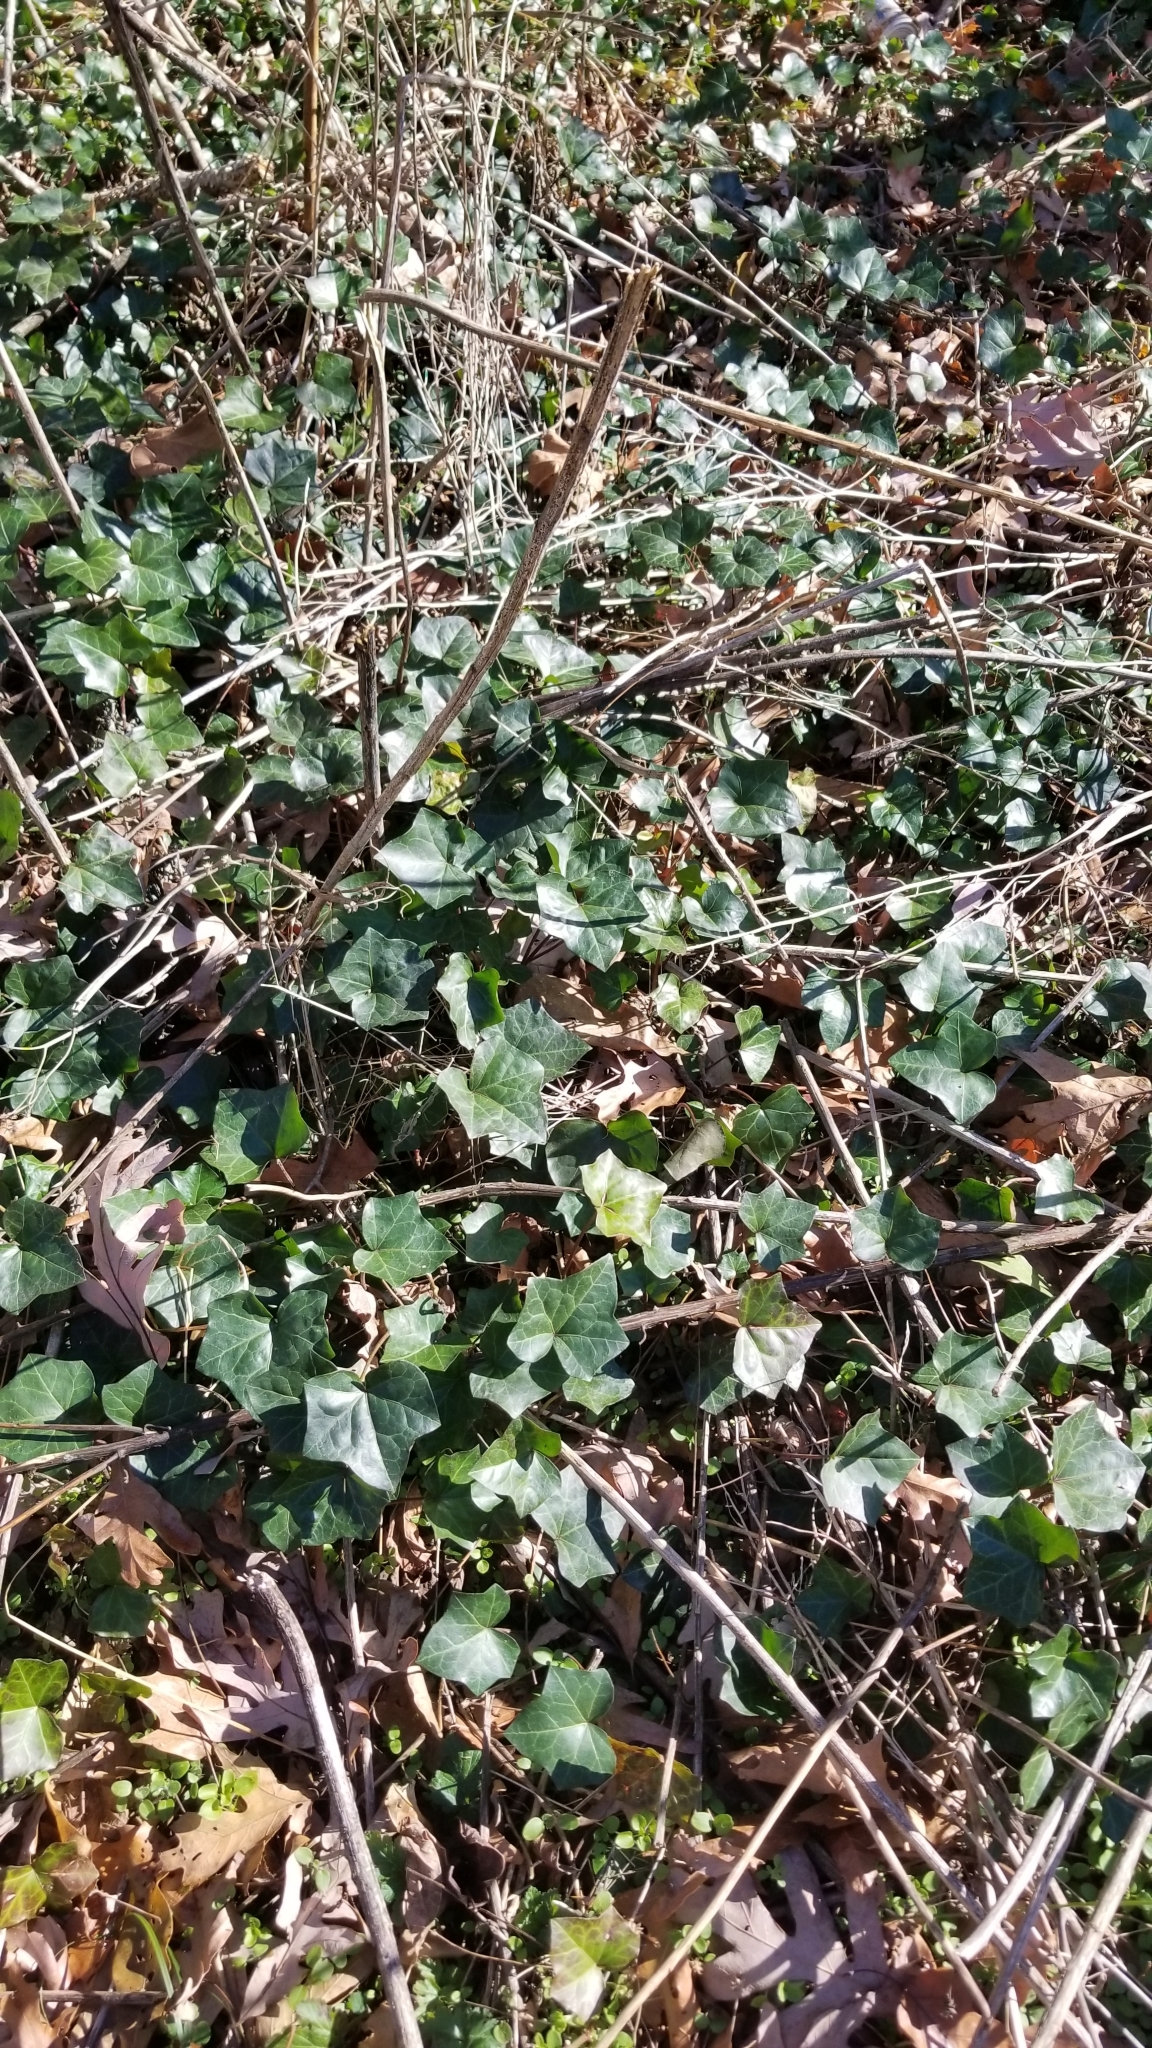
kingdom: Plantae
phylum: Tracheophyta
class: Magnoliopsida
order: Apiales
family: Araliaceae
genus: Hedera
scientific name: Hedera helix
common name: Ivy
